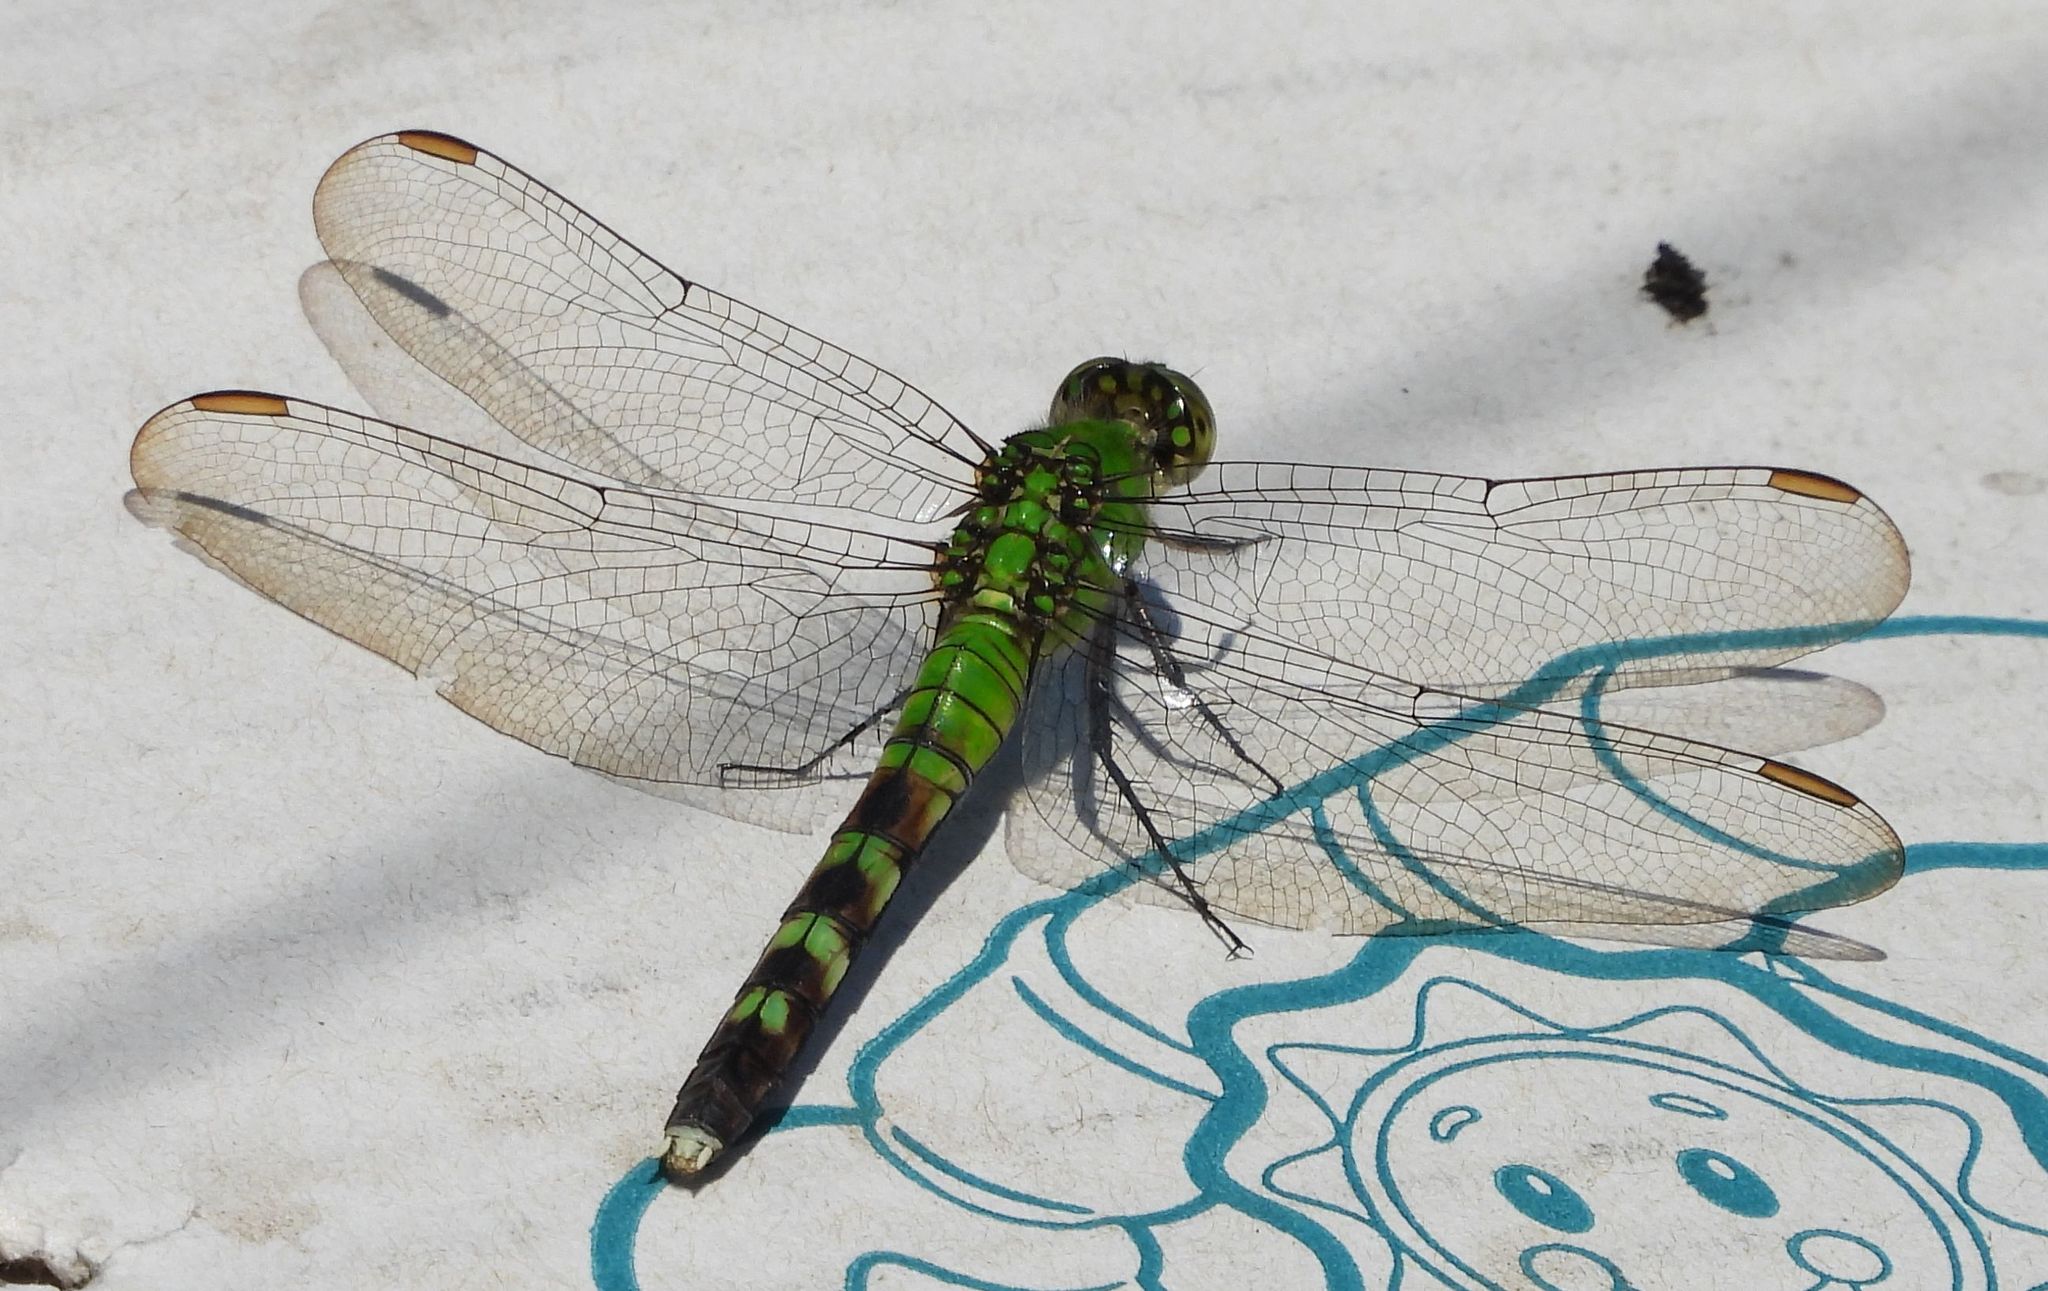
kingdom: Animalia
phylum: Arthropoda
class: Insecta
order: Odonata
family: Libellulidae
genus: Erythemis
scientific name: Erythemis simplicicollis
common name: Eastern pondhawk
